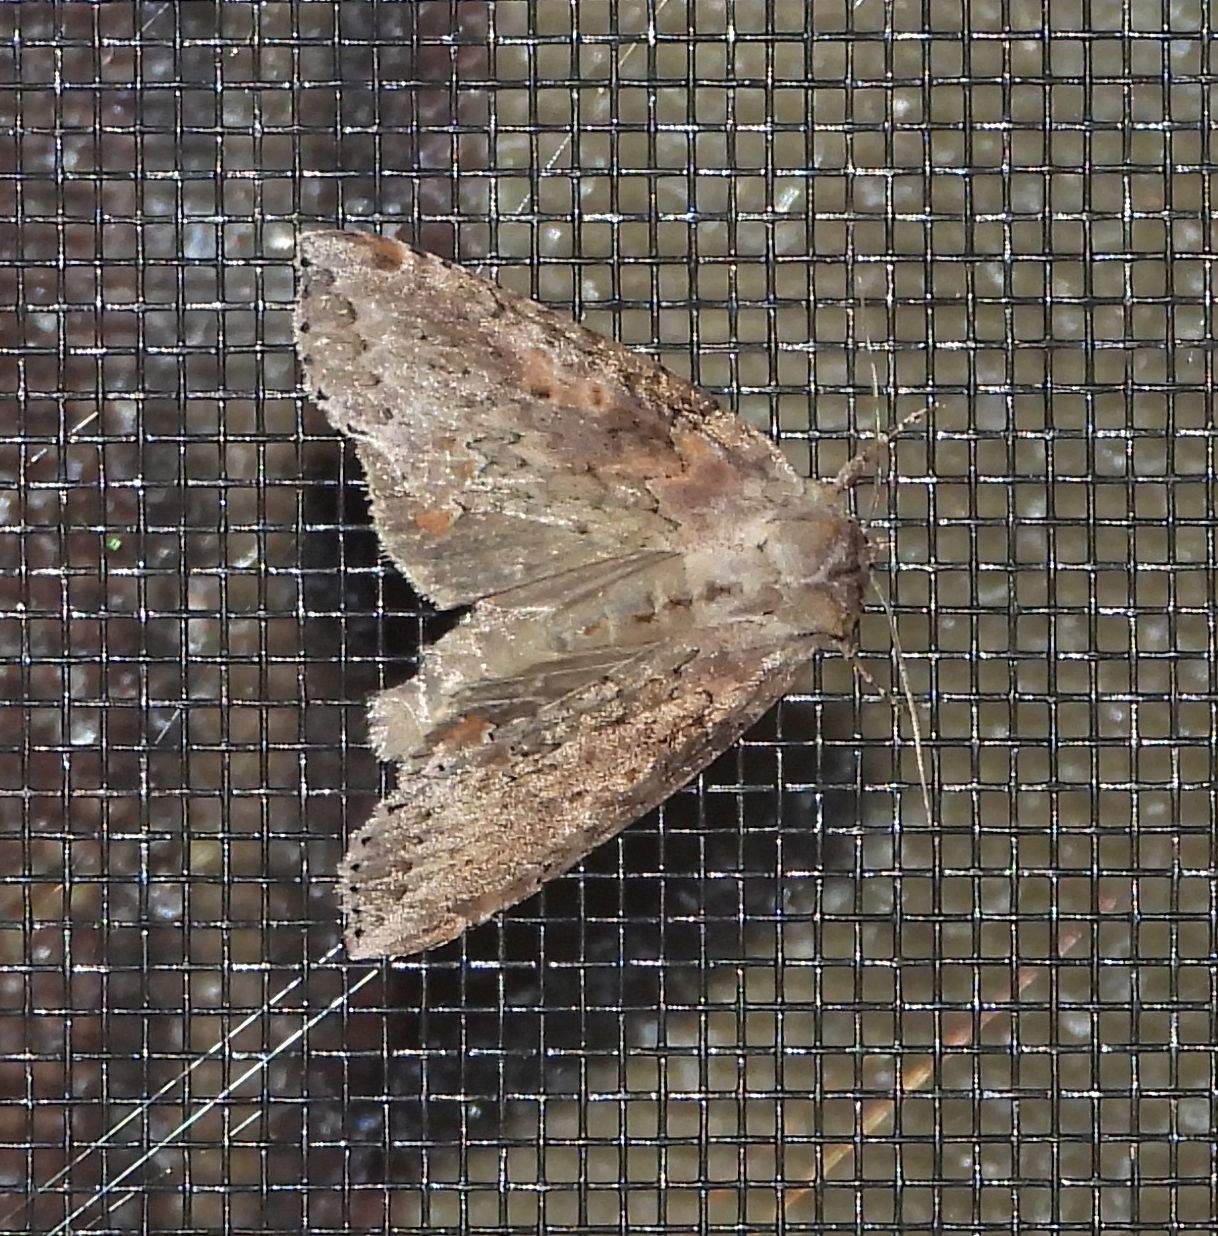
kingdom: Animalia
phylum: Arthropoda
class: Insecta
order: Lepidoptera
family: Drepanidae
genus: Pseudothyatira
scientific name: Pseudothyatira cymatophoroides
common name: Tufted thyatirid moth
